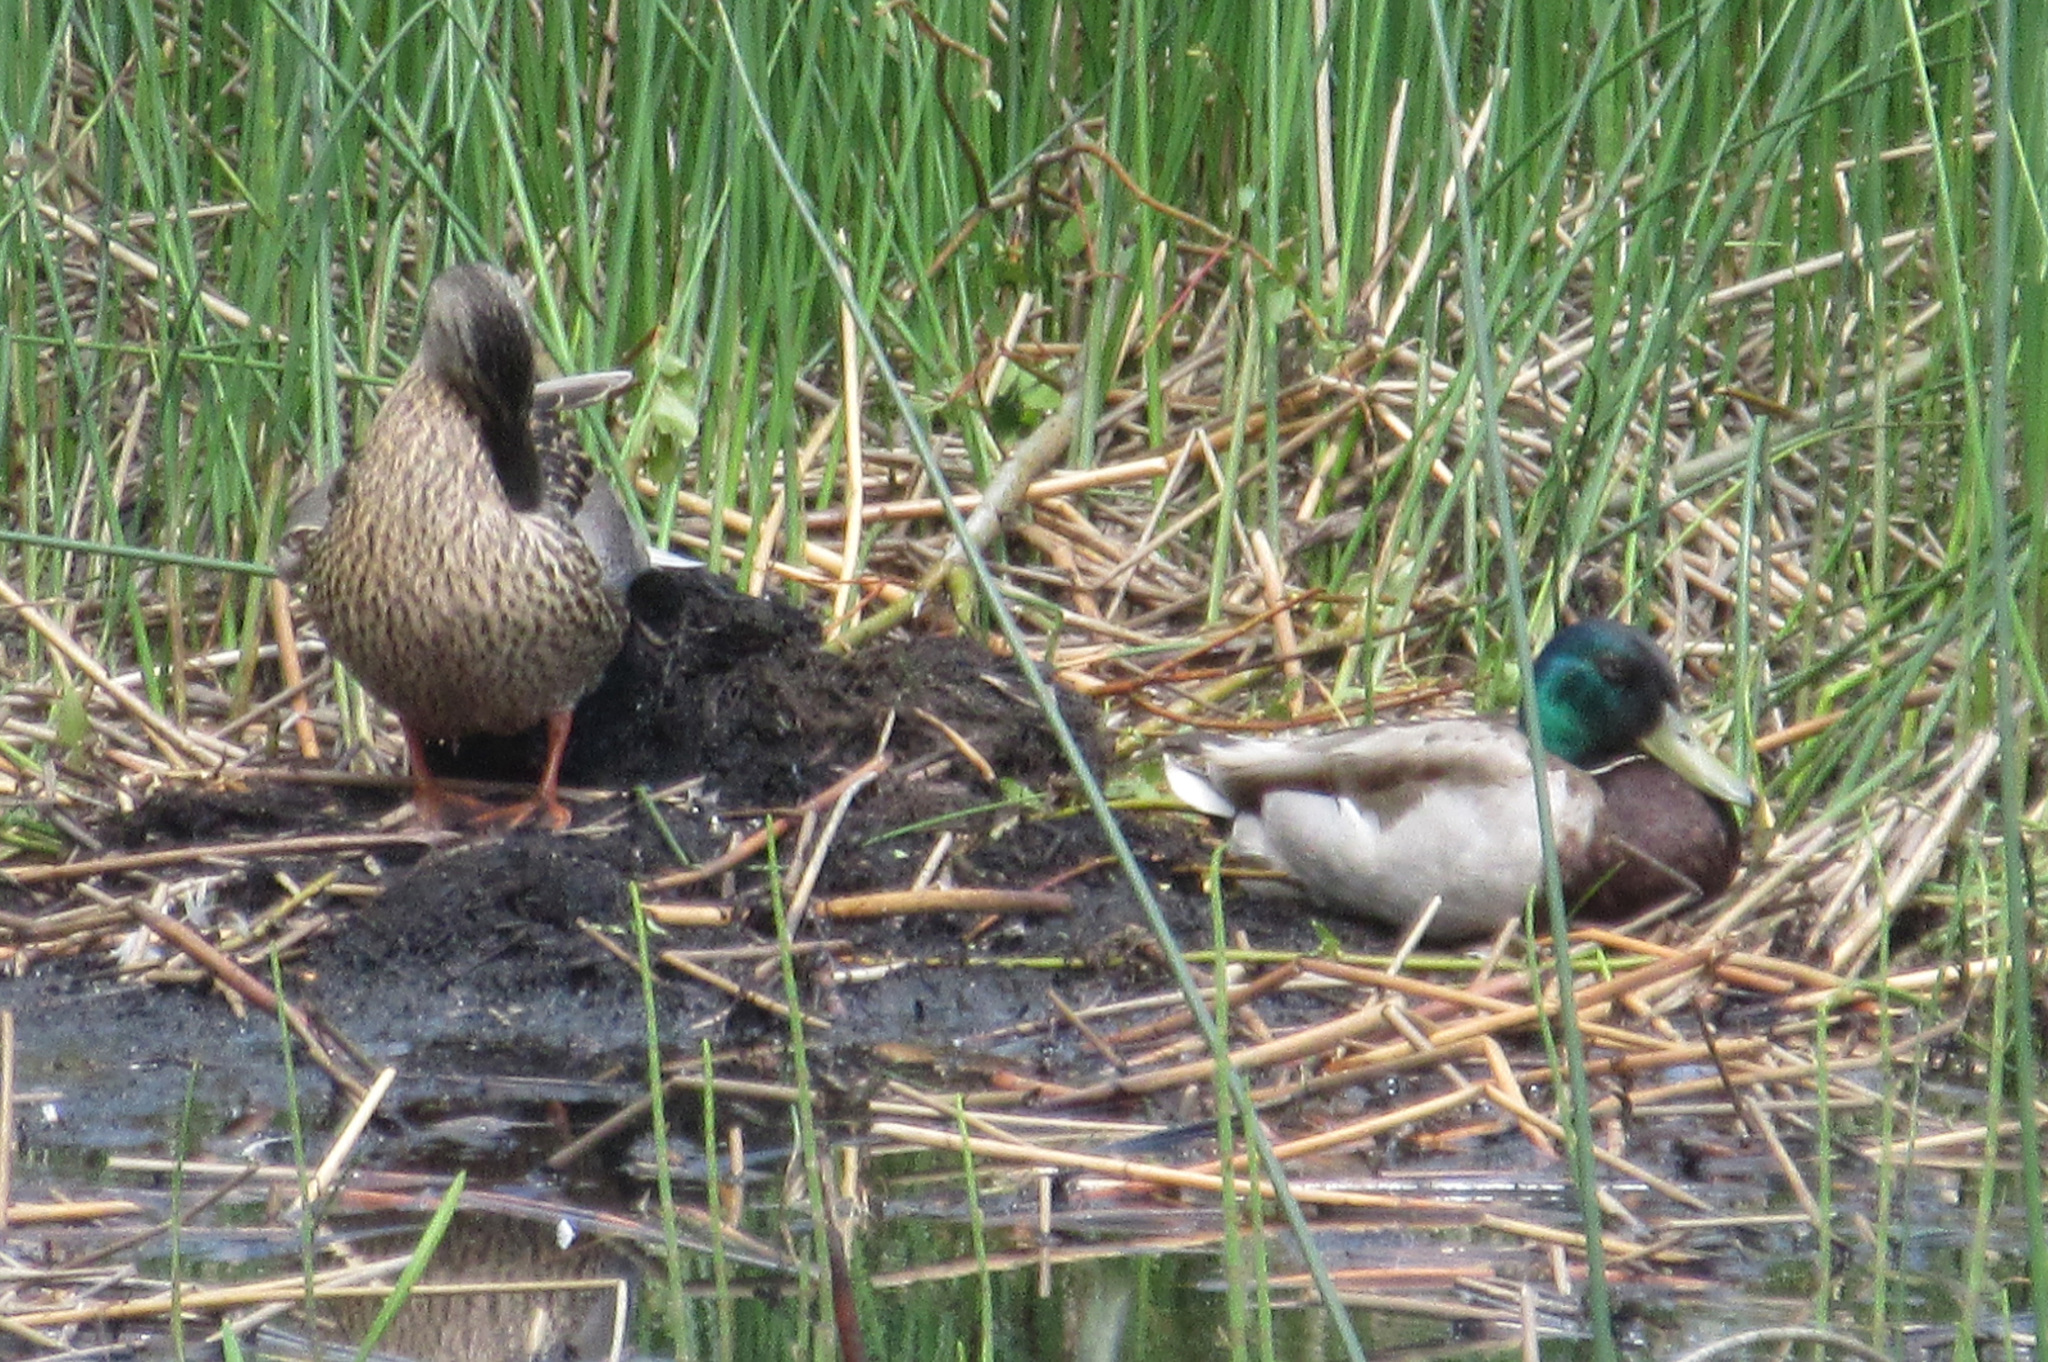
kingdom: Animalia
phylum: Chordata
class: Aves
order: Anseriformes
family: Anatidae
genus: Anas
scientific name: Anas platyrhynchos
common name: Mallard
